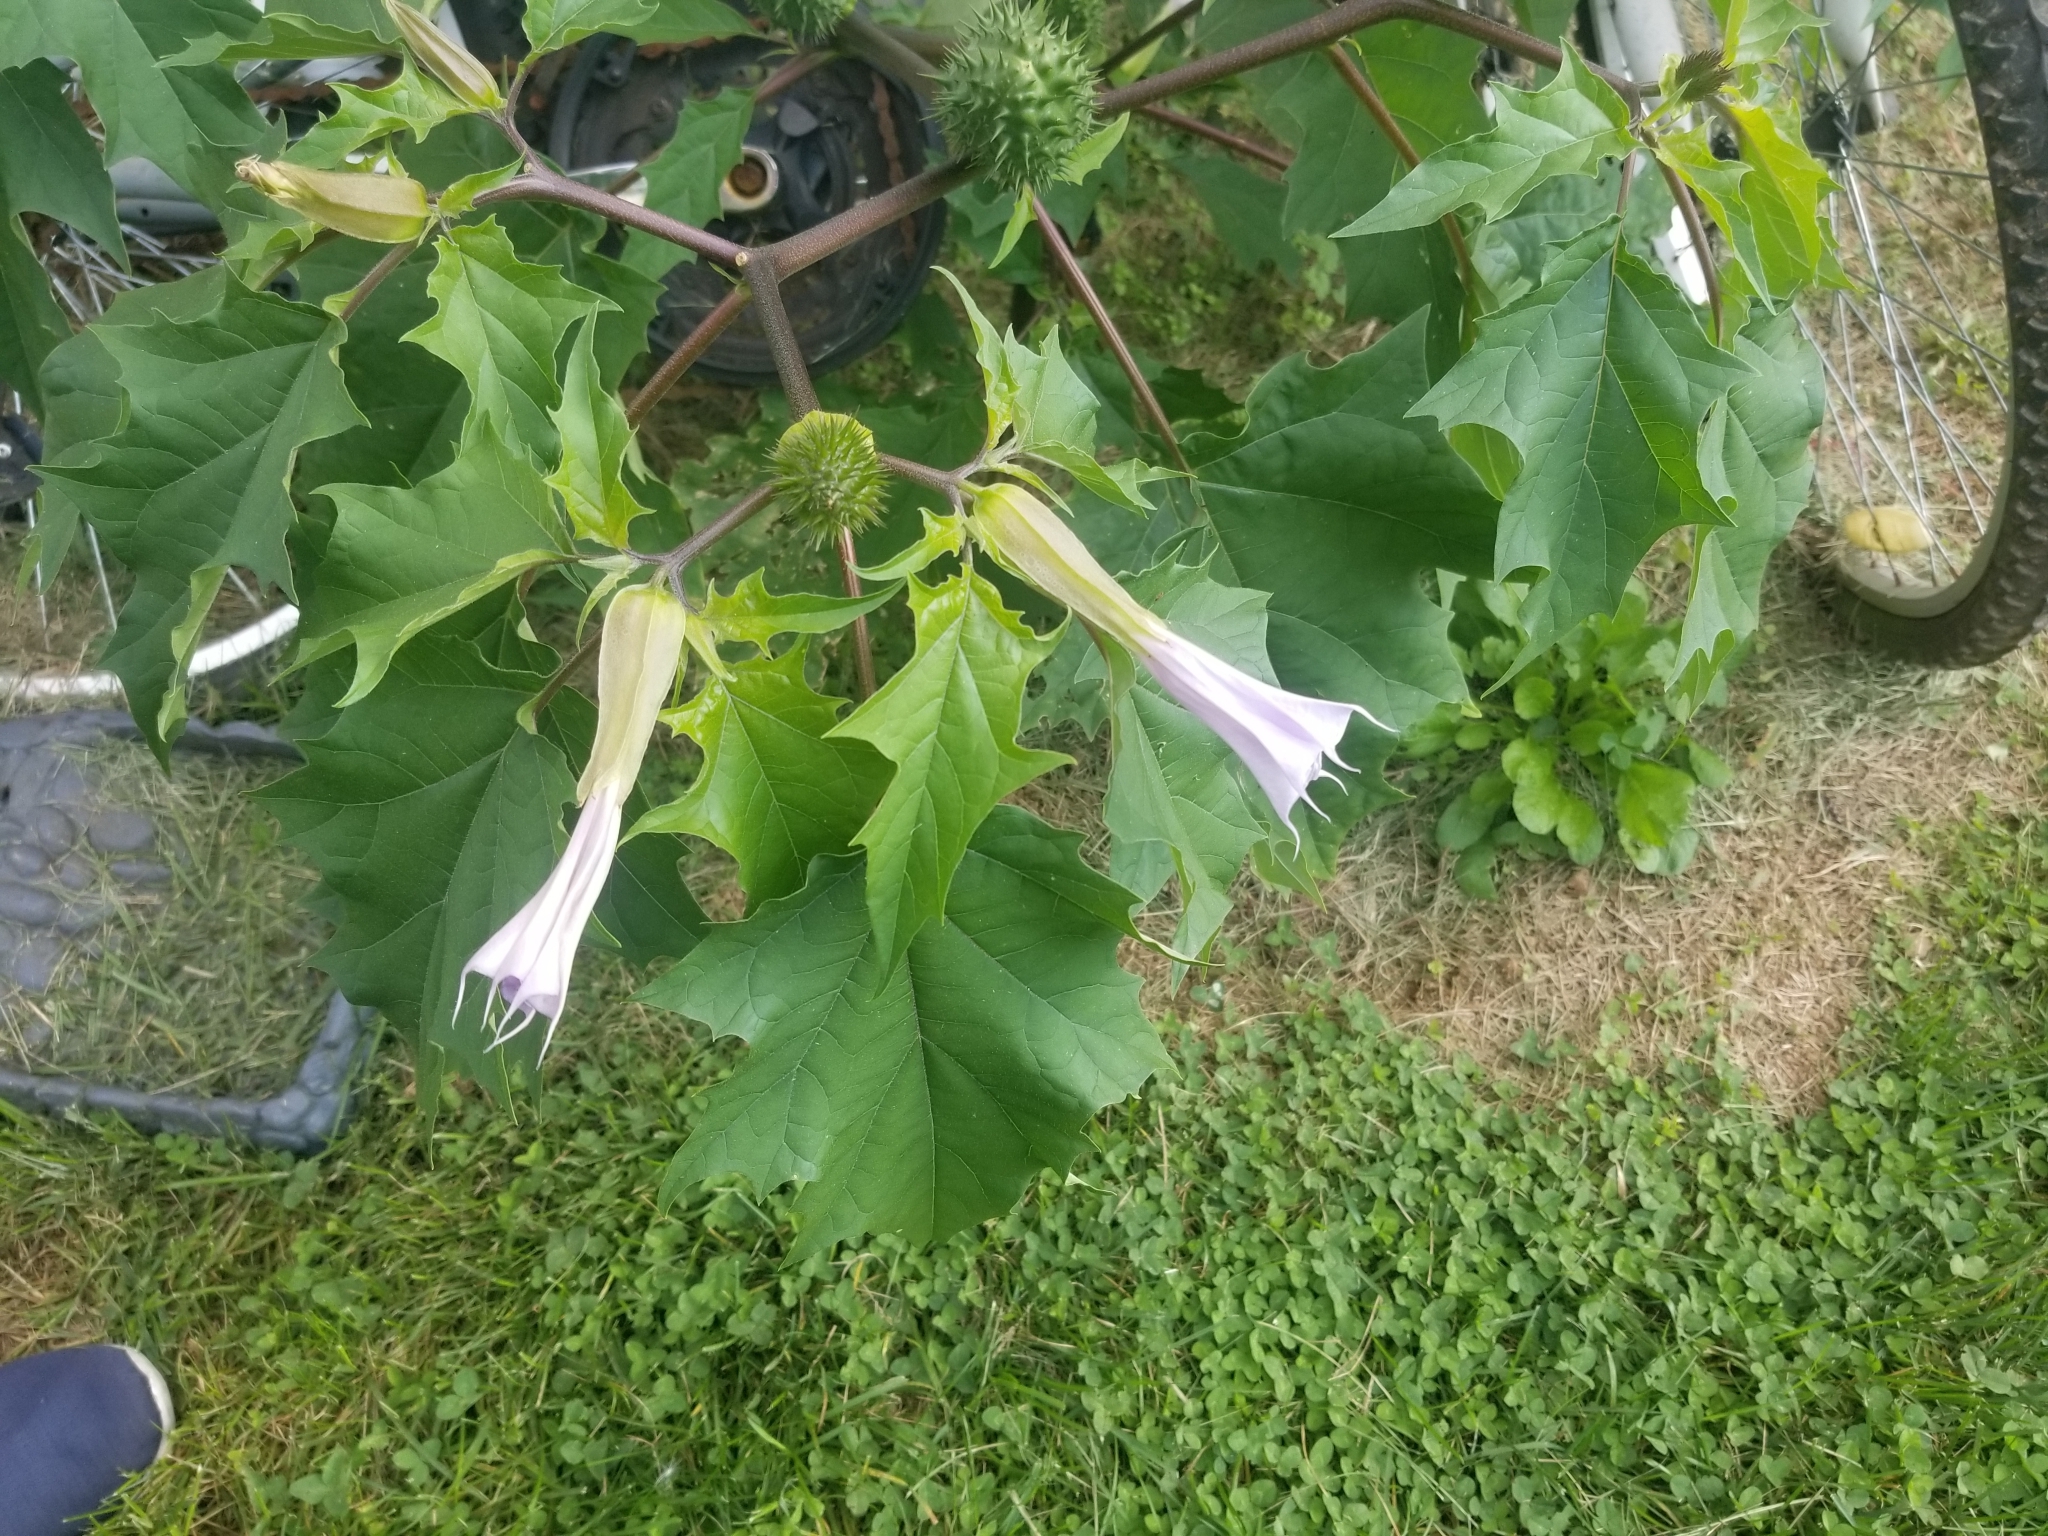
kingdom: Plantae
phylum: Tracheophyta
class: Magnoliopsida
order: Solanales
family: Solanaceae
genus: Datura
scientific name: Datura stramonium
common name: Thorn-apple
